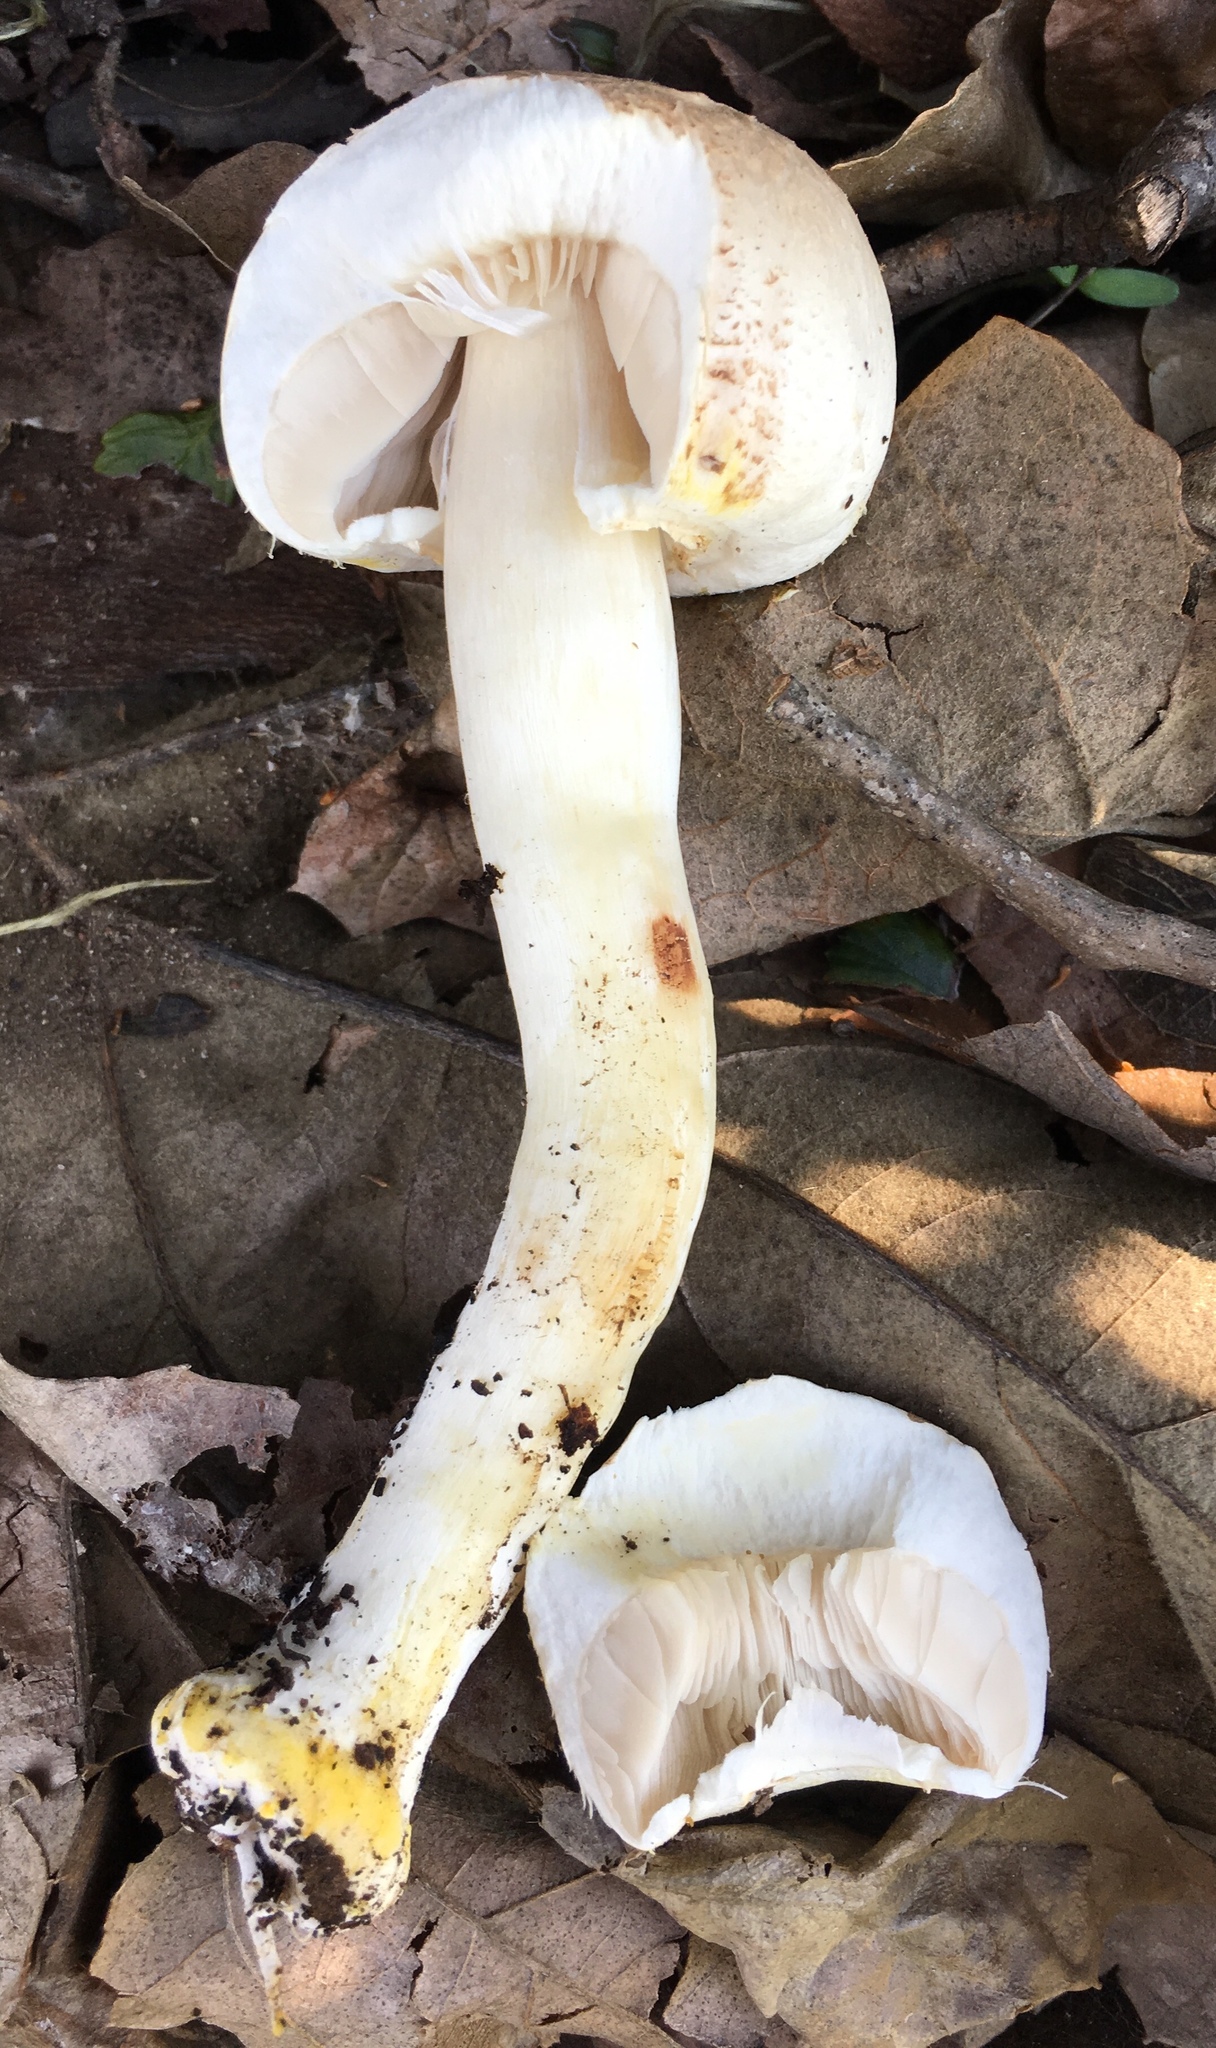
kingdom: Fungi
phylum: Basidiomycota
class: Agaricomycetes
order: Agaricales
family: Agaricaceae
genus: Agaricus
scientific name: Agaricus xanthodermus
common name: Yellow stainer
